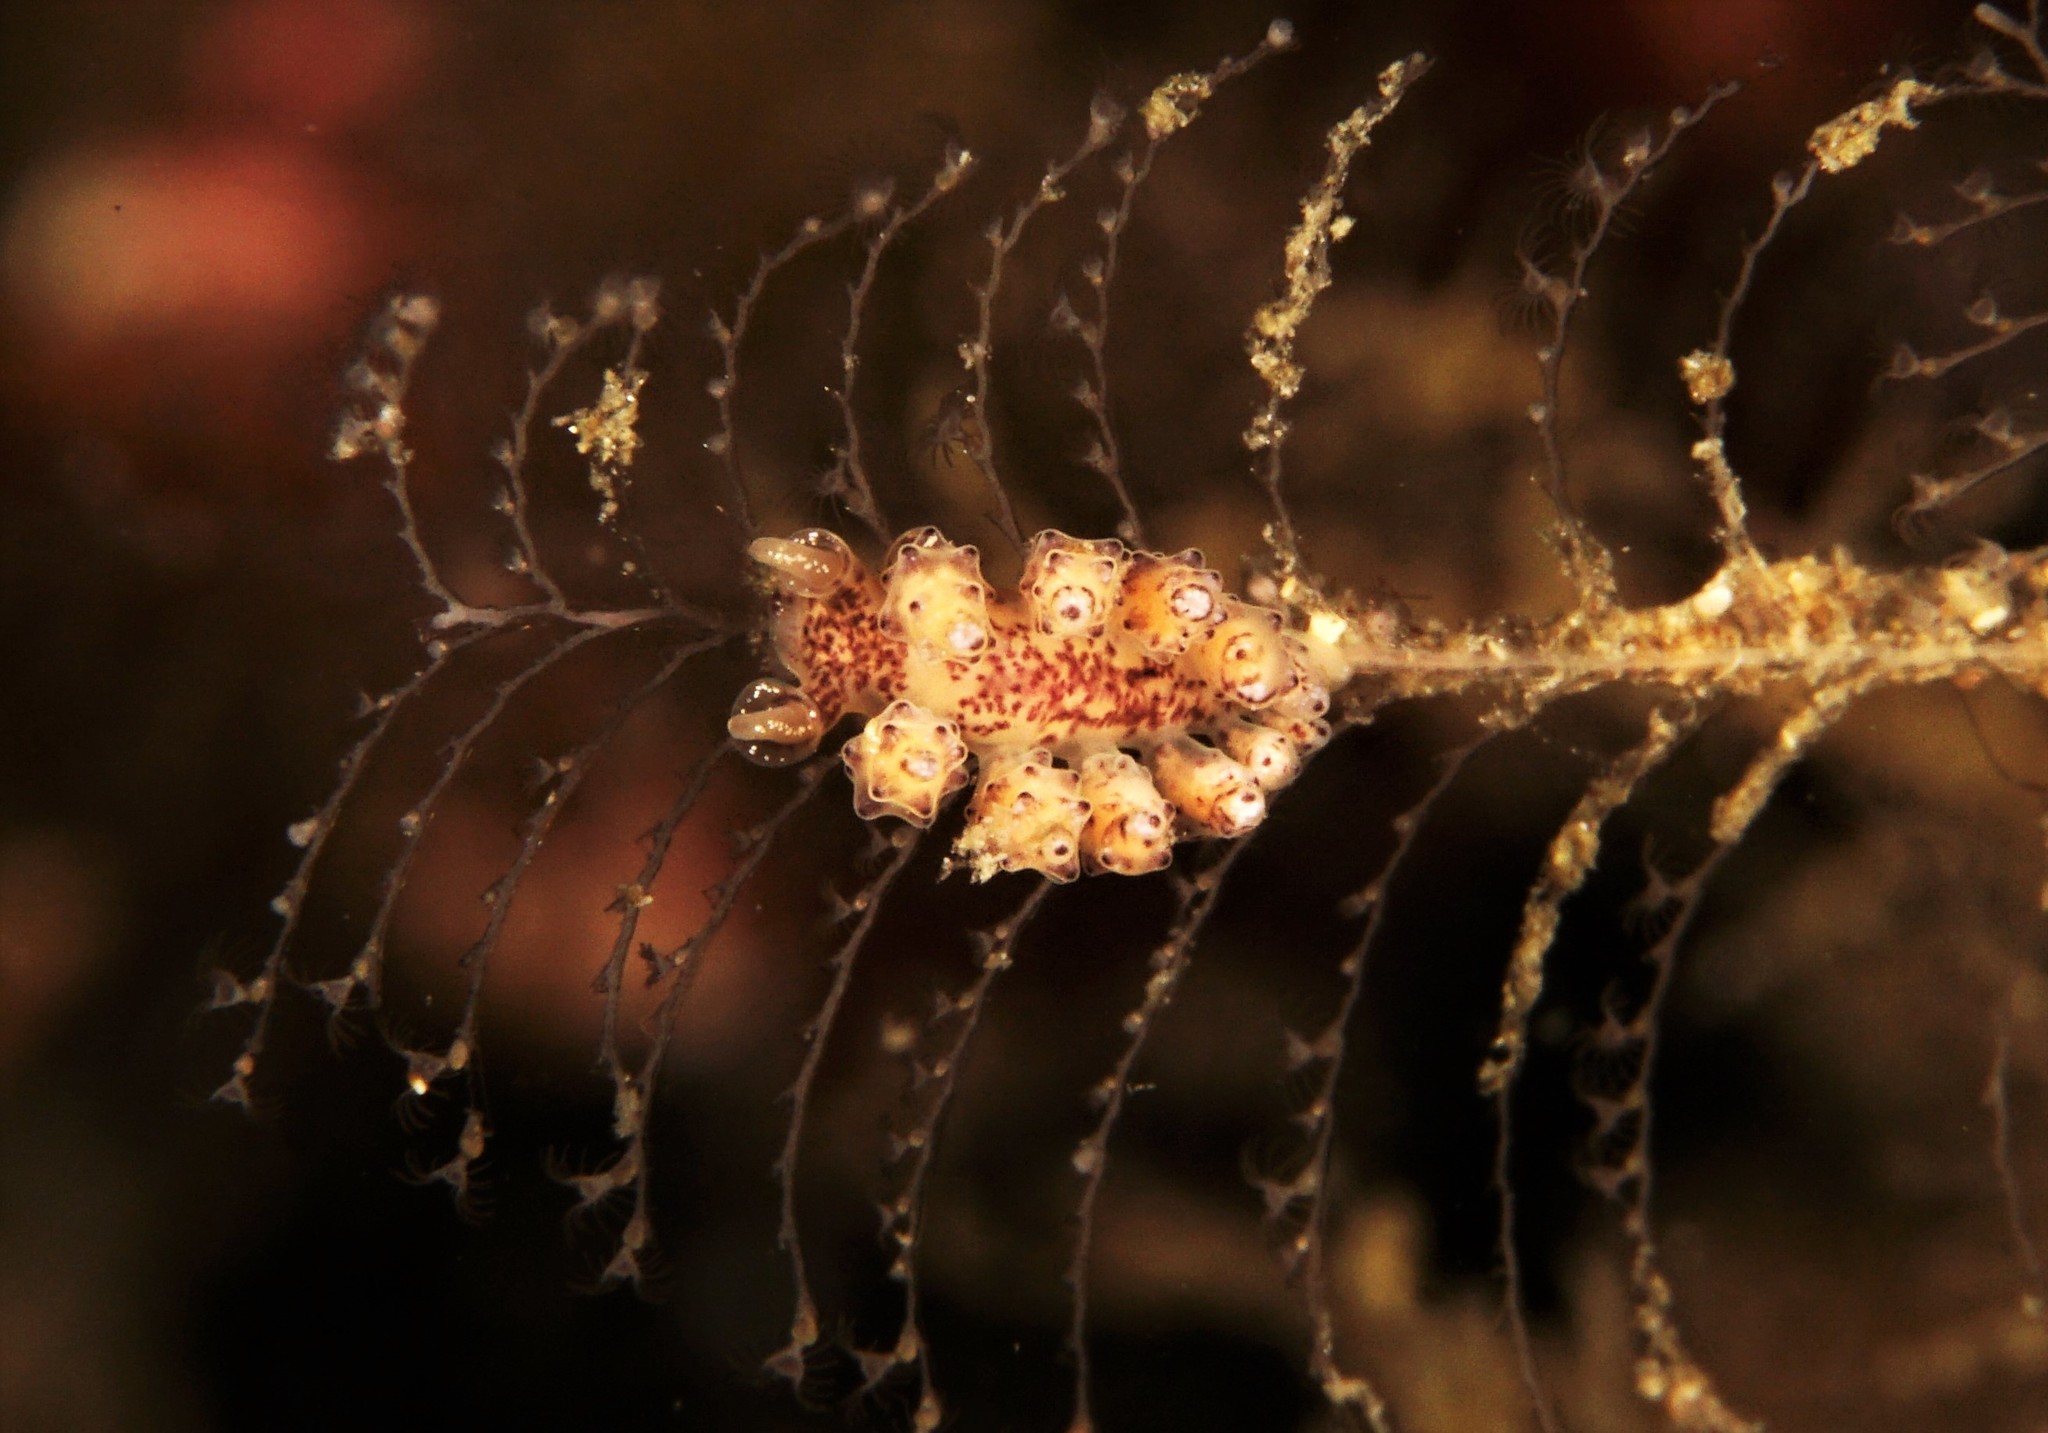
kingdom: Animalia
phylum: Mollusca
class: Gastropoda
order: Nudibranchia
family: Dotidae
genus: Doto
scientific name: Doto dunnei
